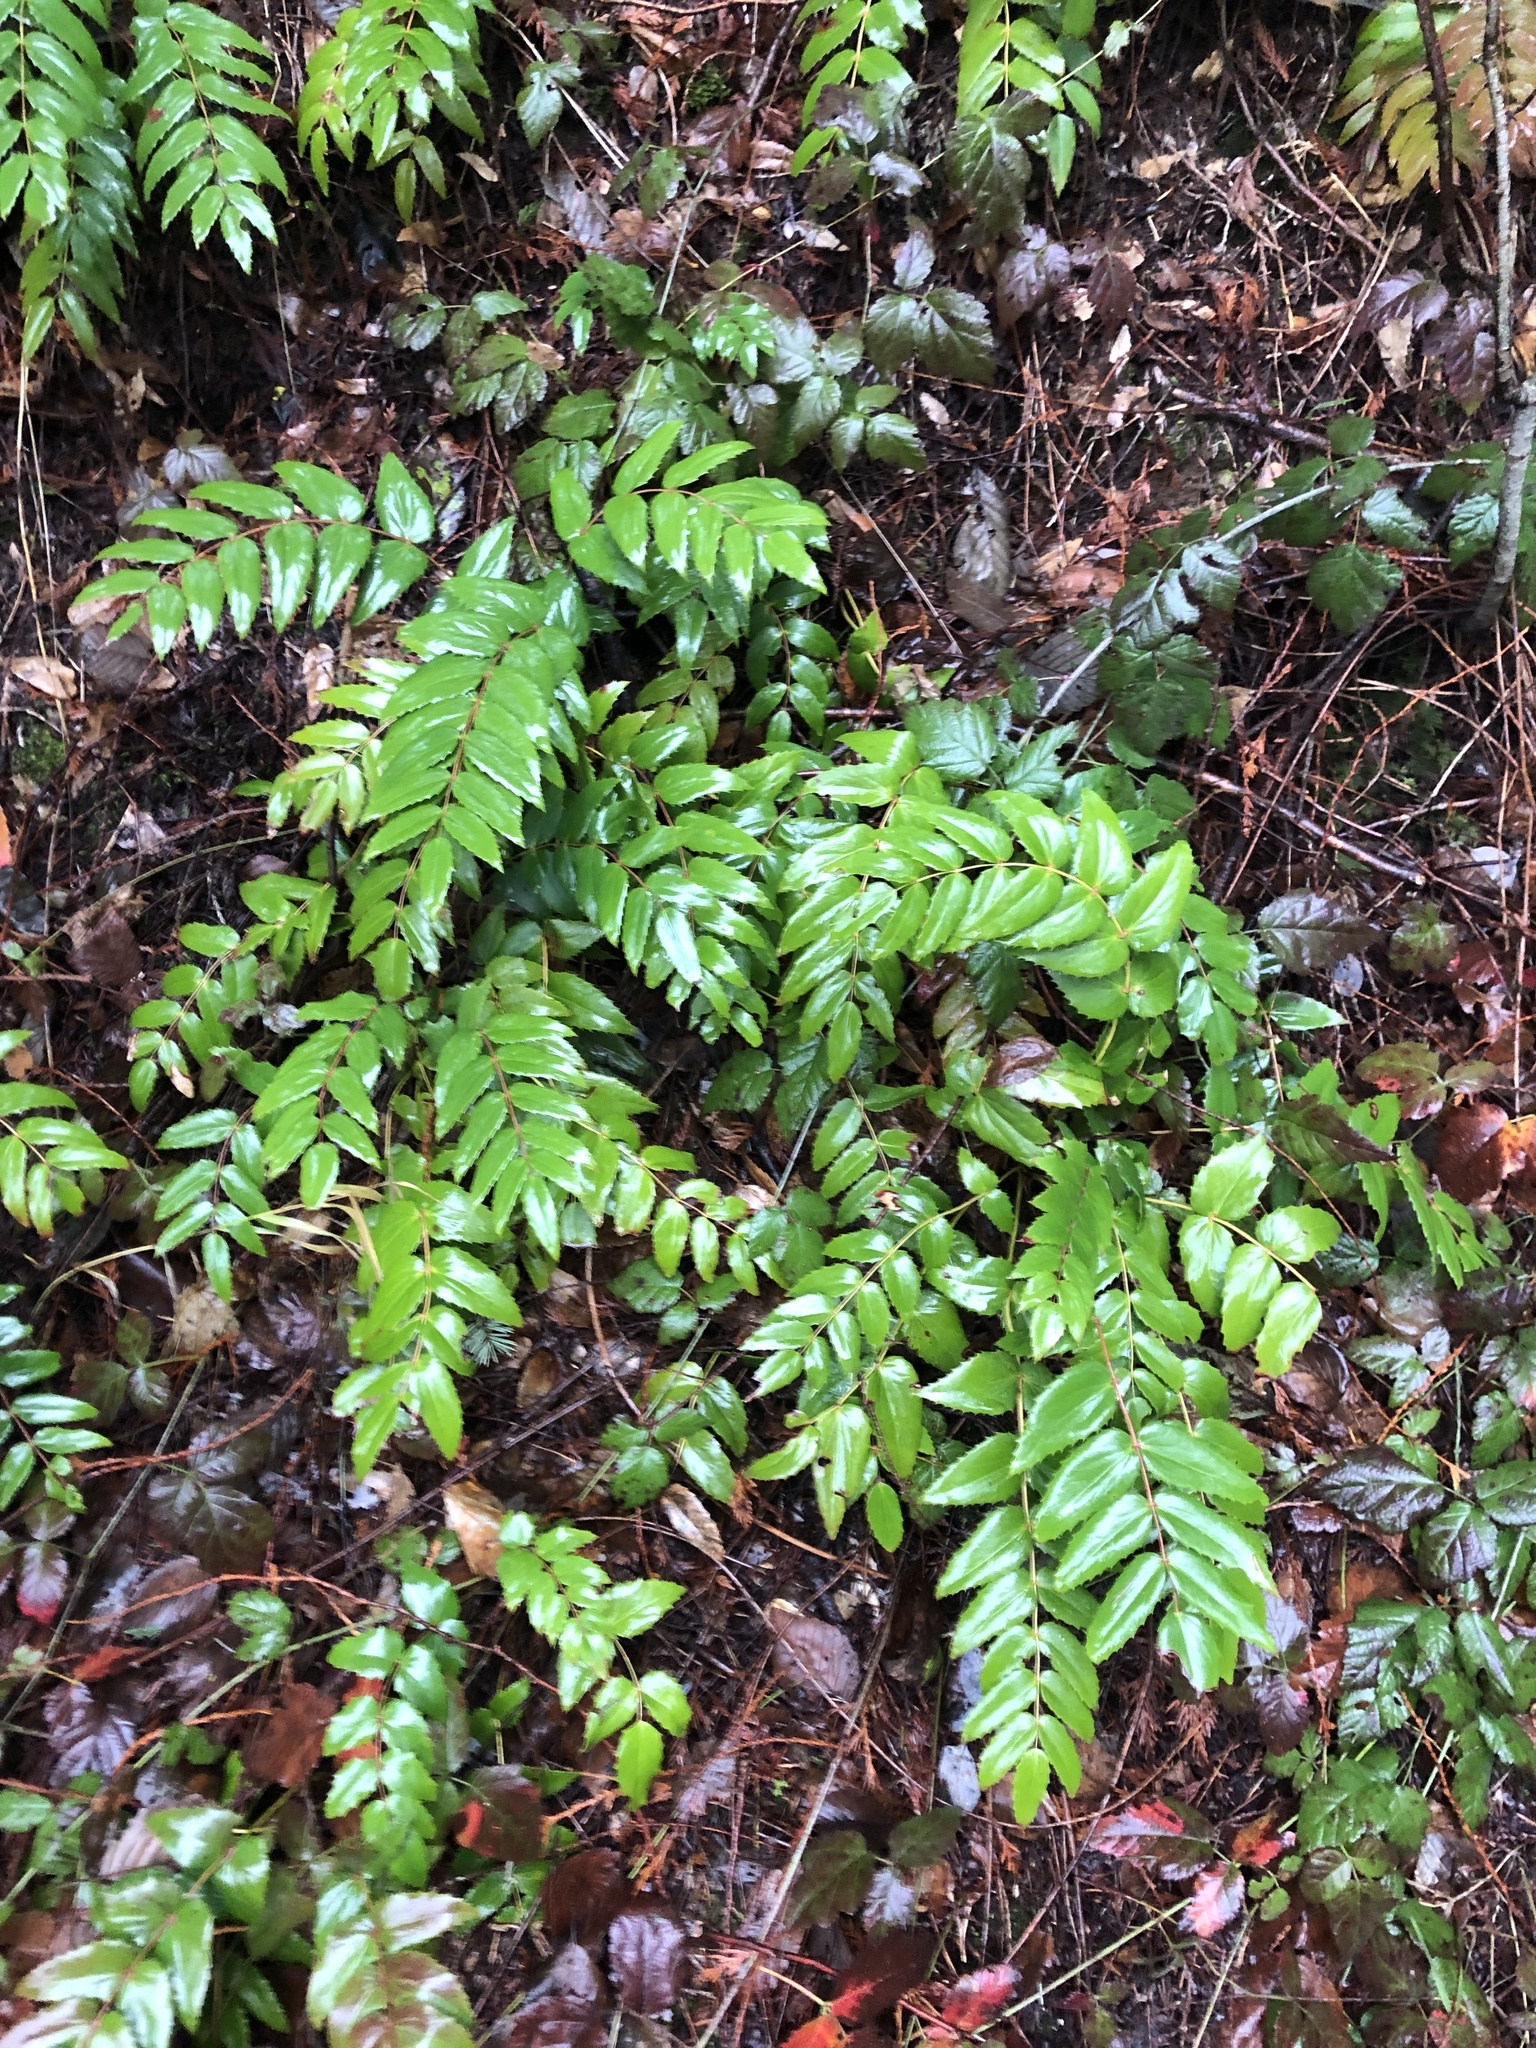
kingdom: Plantae
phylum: Tracheophyta
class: Magnoliopsida
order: Ranunculales
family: Berberidaceae
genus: Mahonia
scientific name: Mahonia nervosa
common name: Cascade oregon-grape
